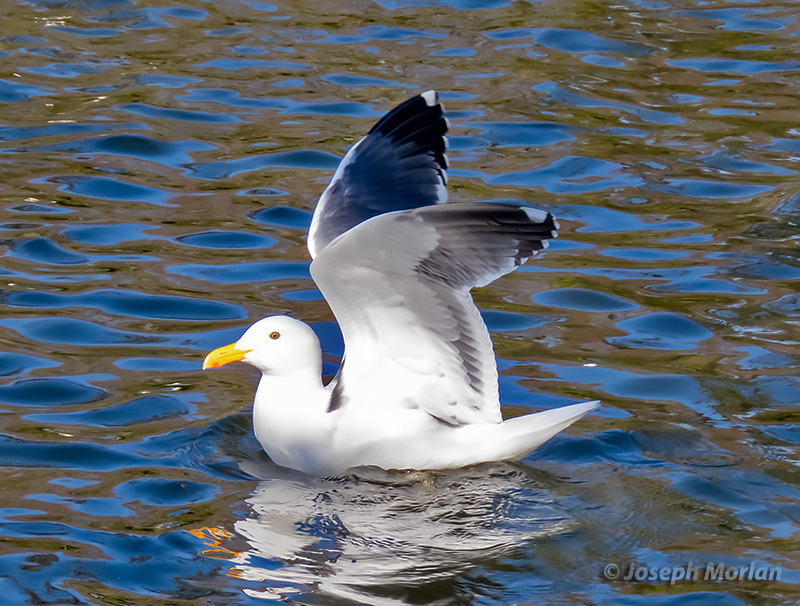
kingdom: Animalia
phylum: Chordata
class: Aves
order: Charadriiformes
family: Laridae
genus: Larus
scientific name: Larus occidentalis
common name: Western gull
